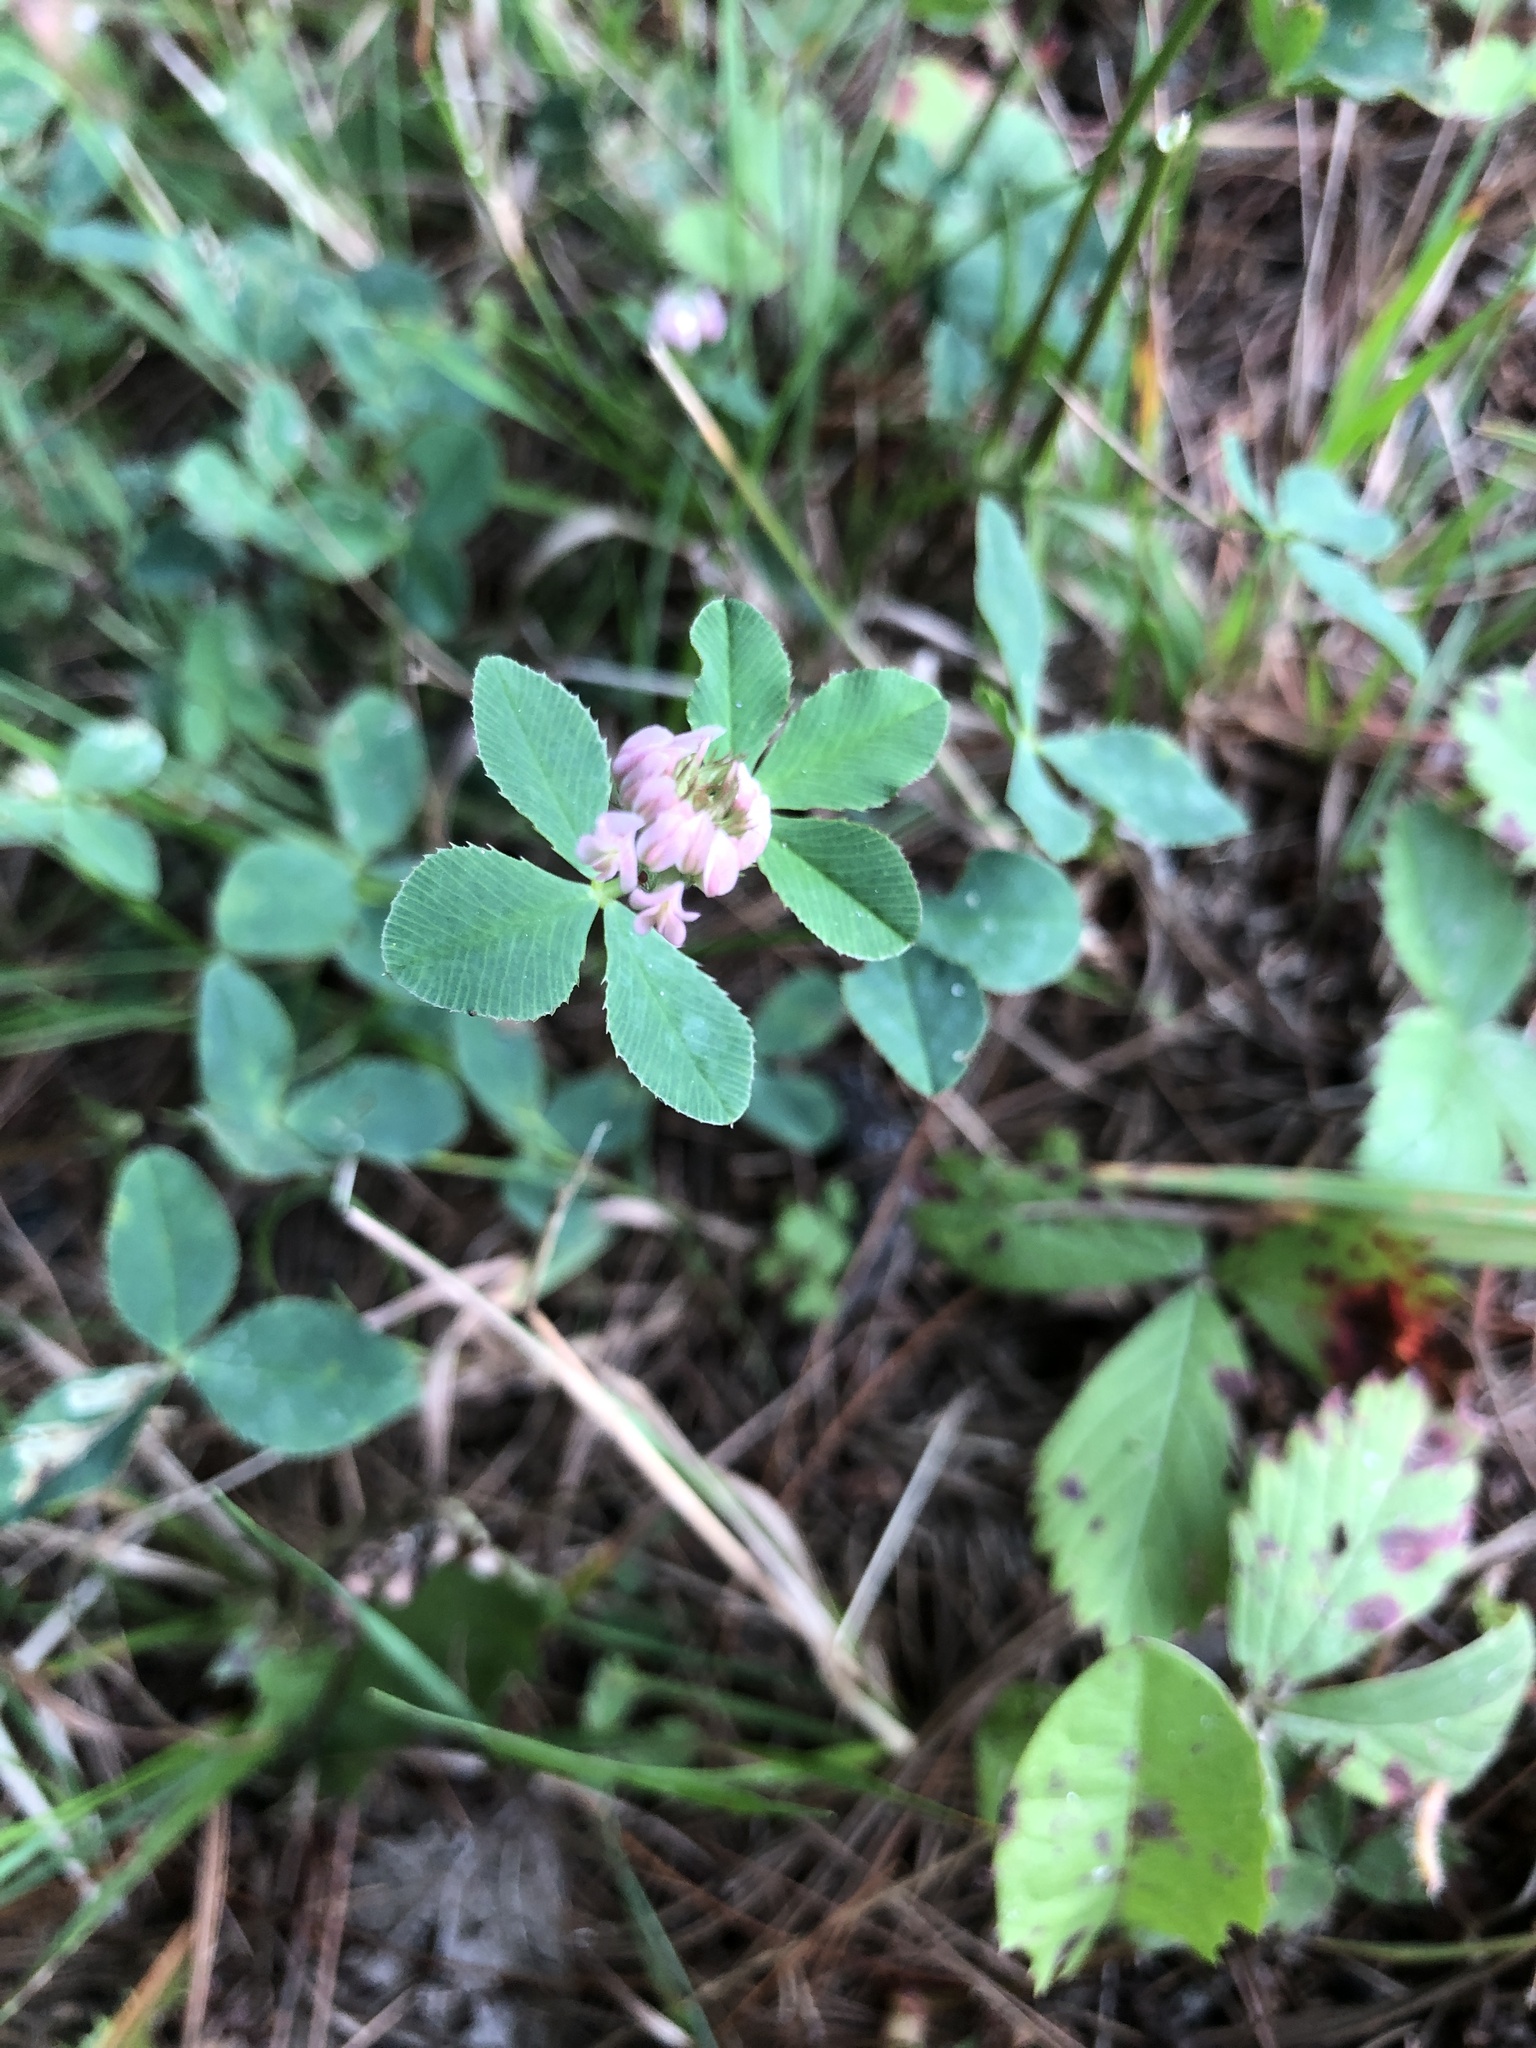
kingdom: Plantae
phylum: Tracheophyta
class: Magnoliopsida
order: Fabales
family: Fabaceae
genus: Trifolium
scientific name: Trifolium hybridum
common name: Alsike clover
